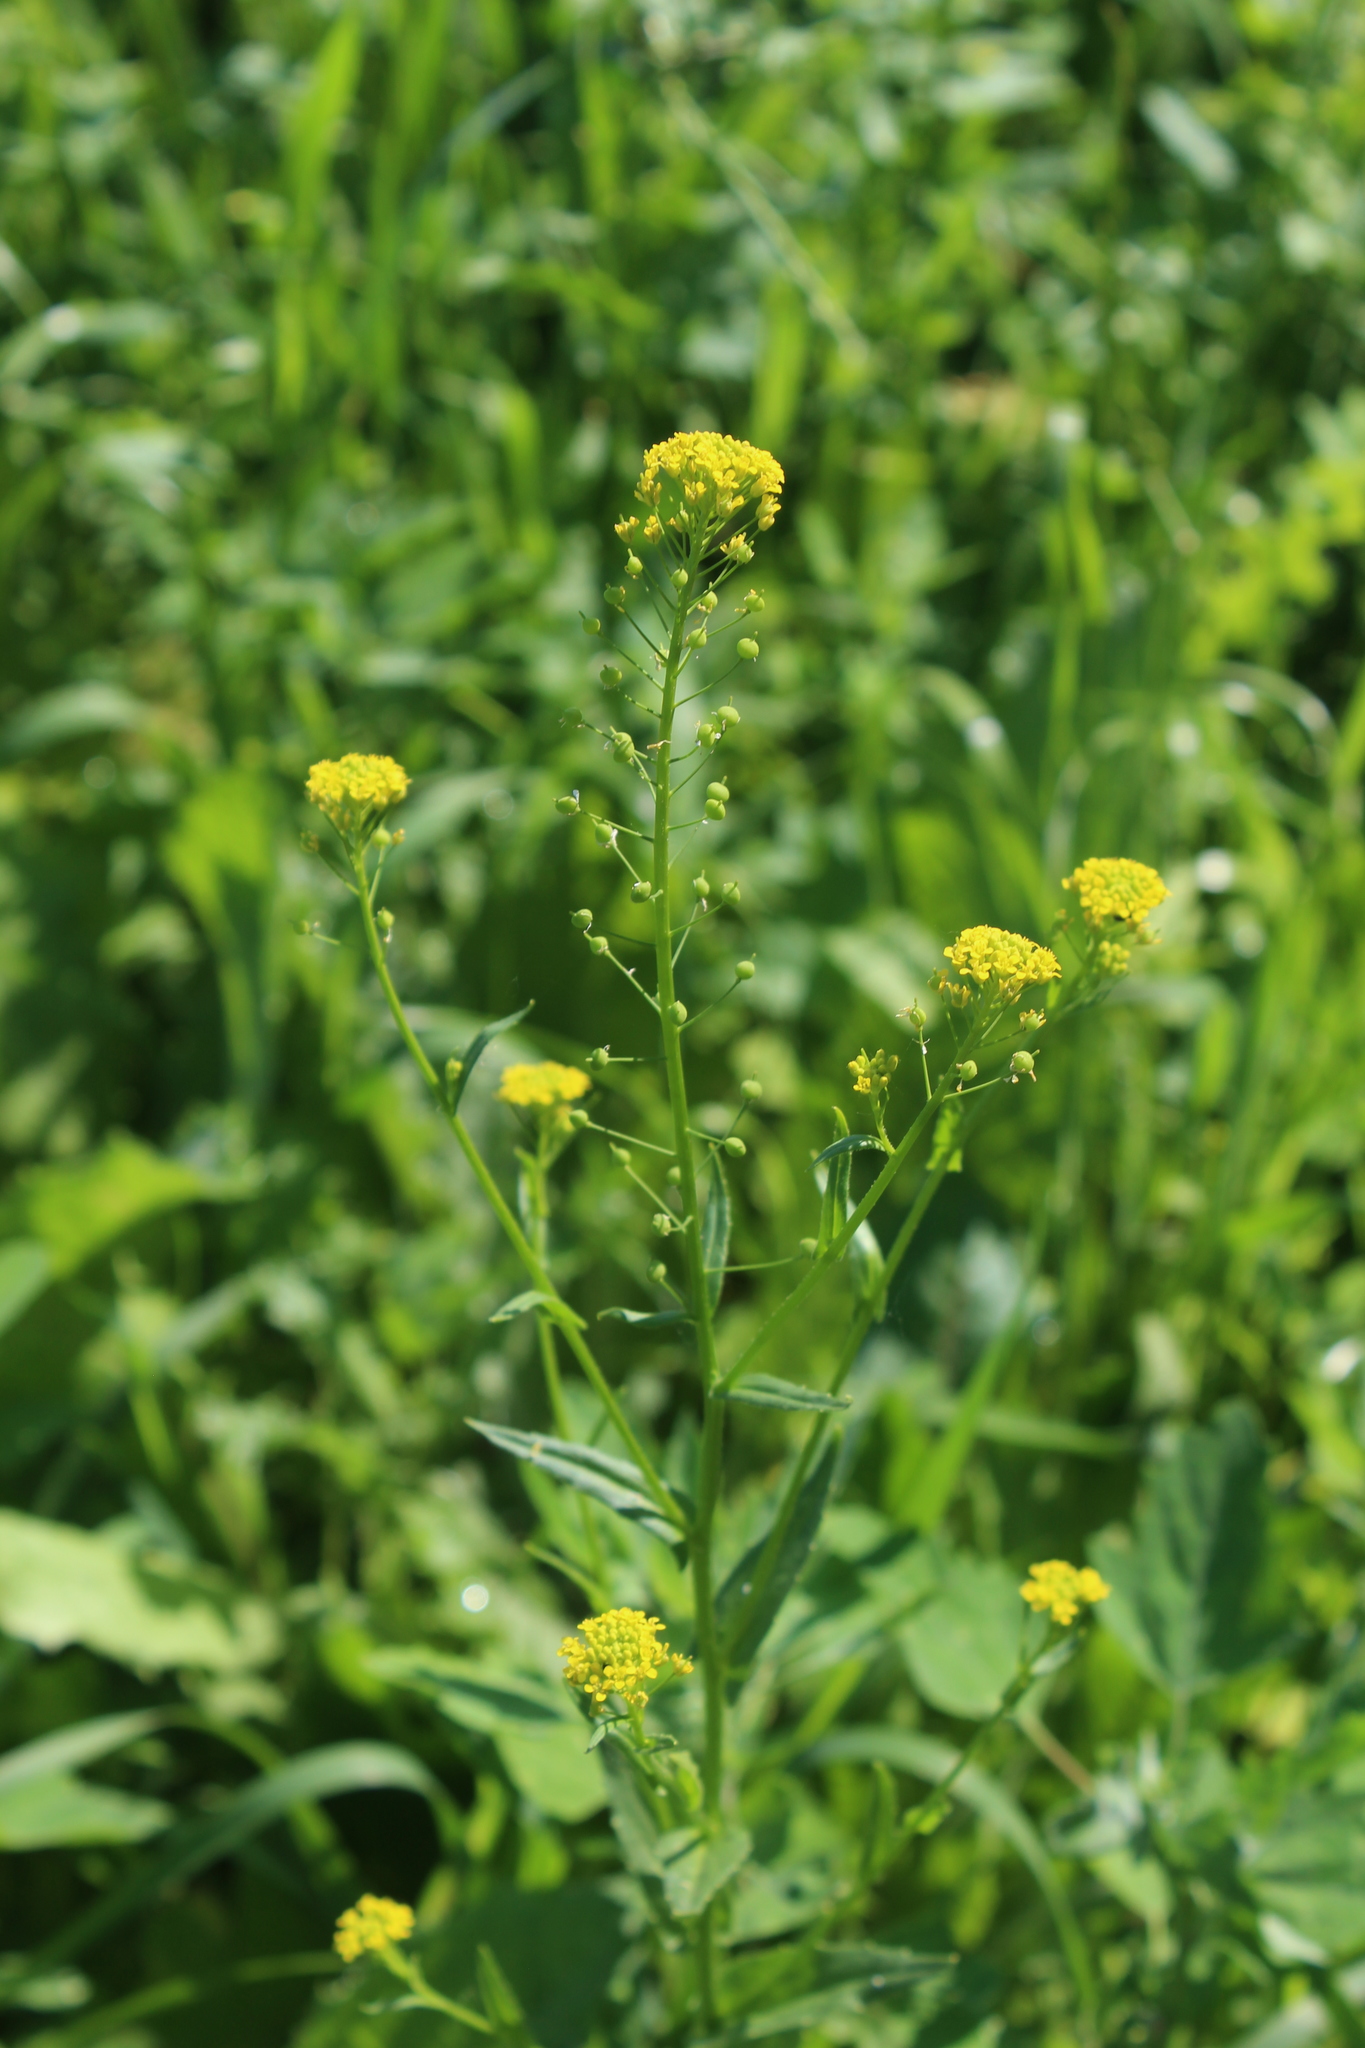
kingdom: Plantae
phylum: Tracheophyta
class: Magnoliopsida
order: Brassicales
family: Brassicaceae
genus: Neslia
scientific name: Neslia paniculata
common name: Ball mustard
